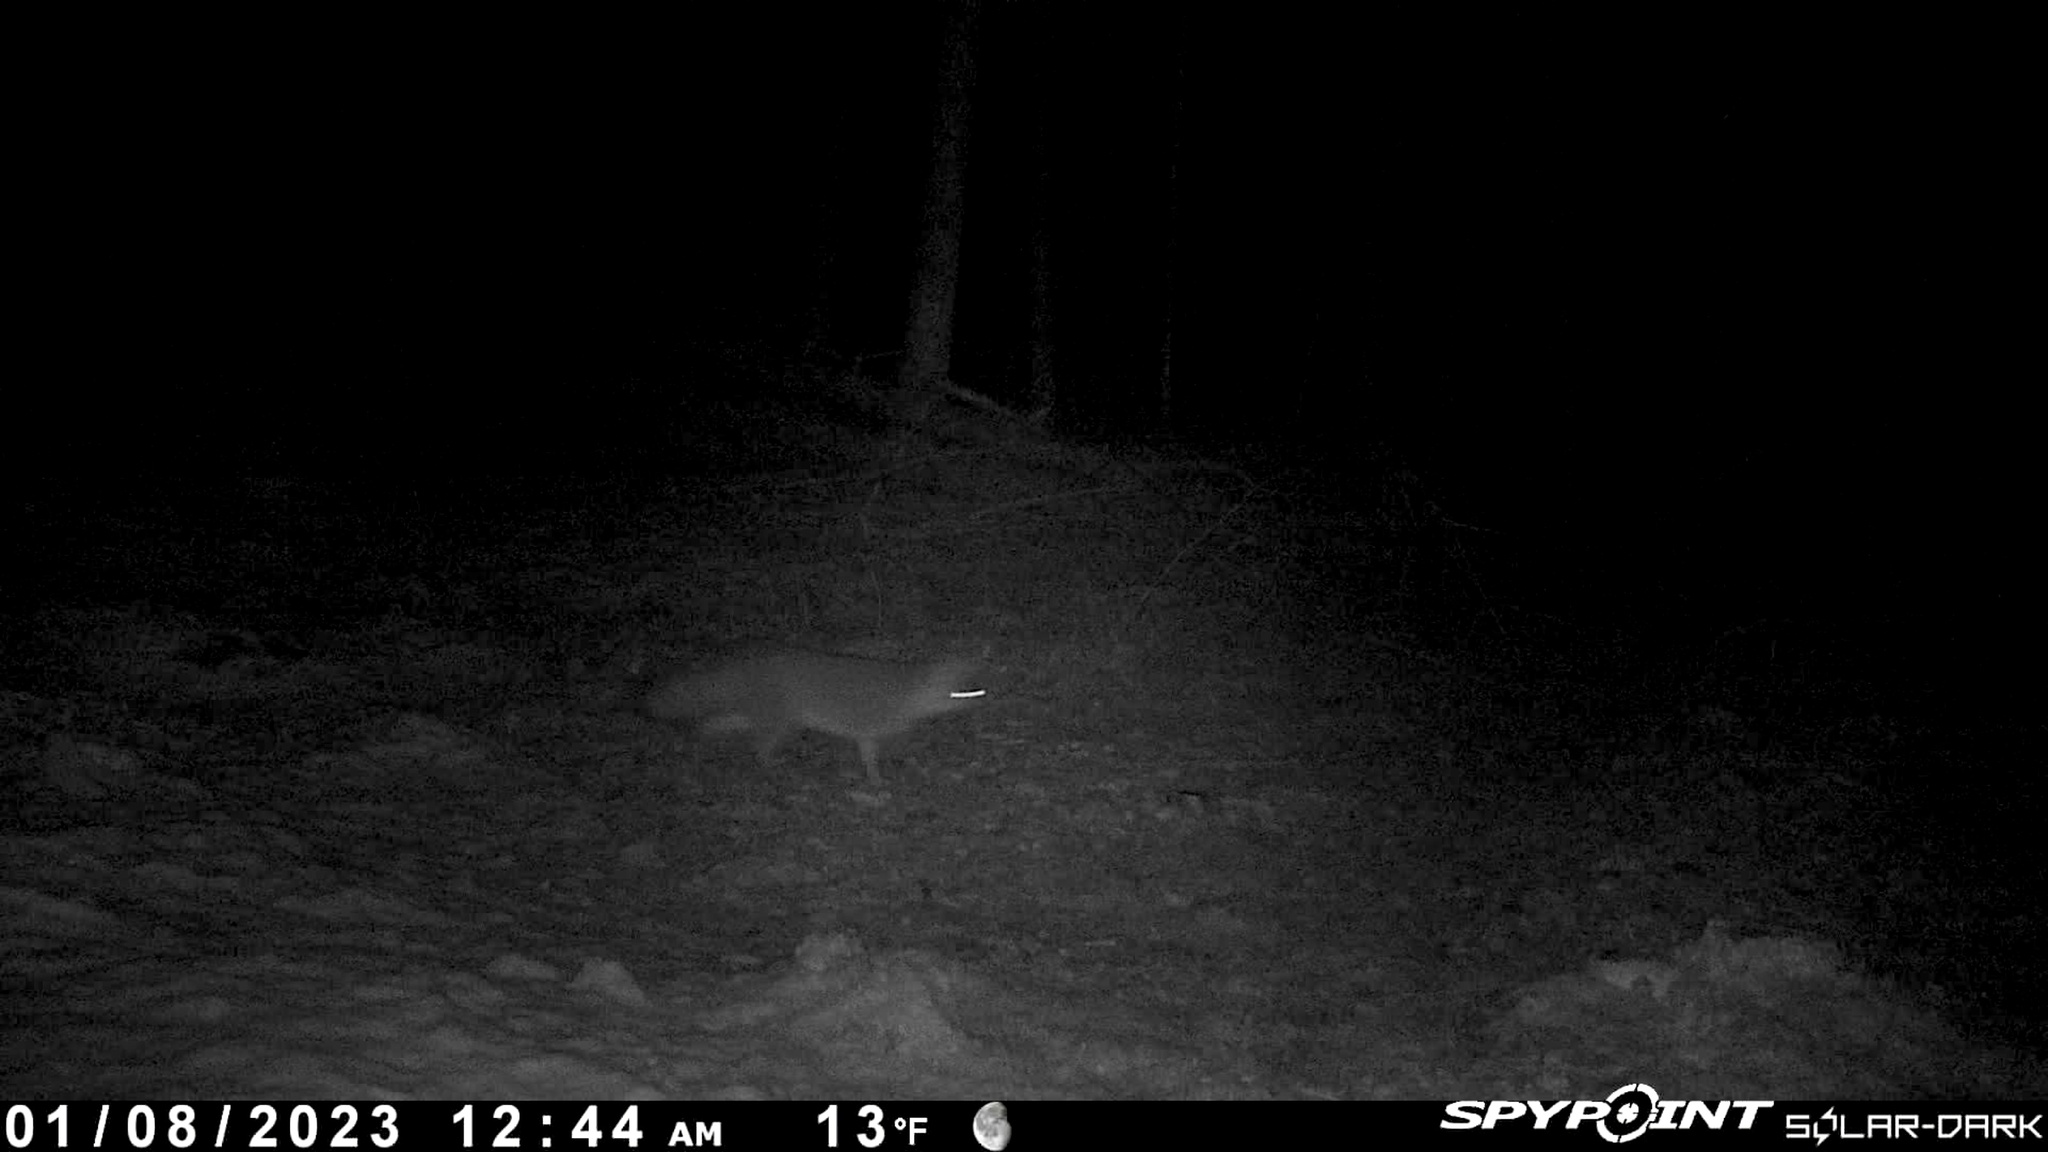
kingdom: Animalia
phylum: Chordata
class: Mammalia
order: Carnivora
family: Canidae
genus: Urocyon
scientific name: Urocyon cinereoargenteus
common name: Gray fox
